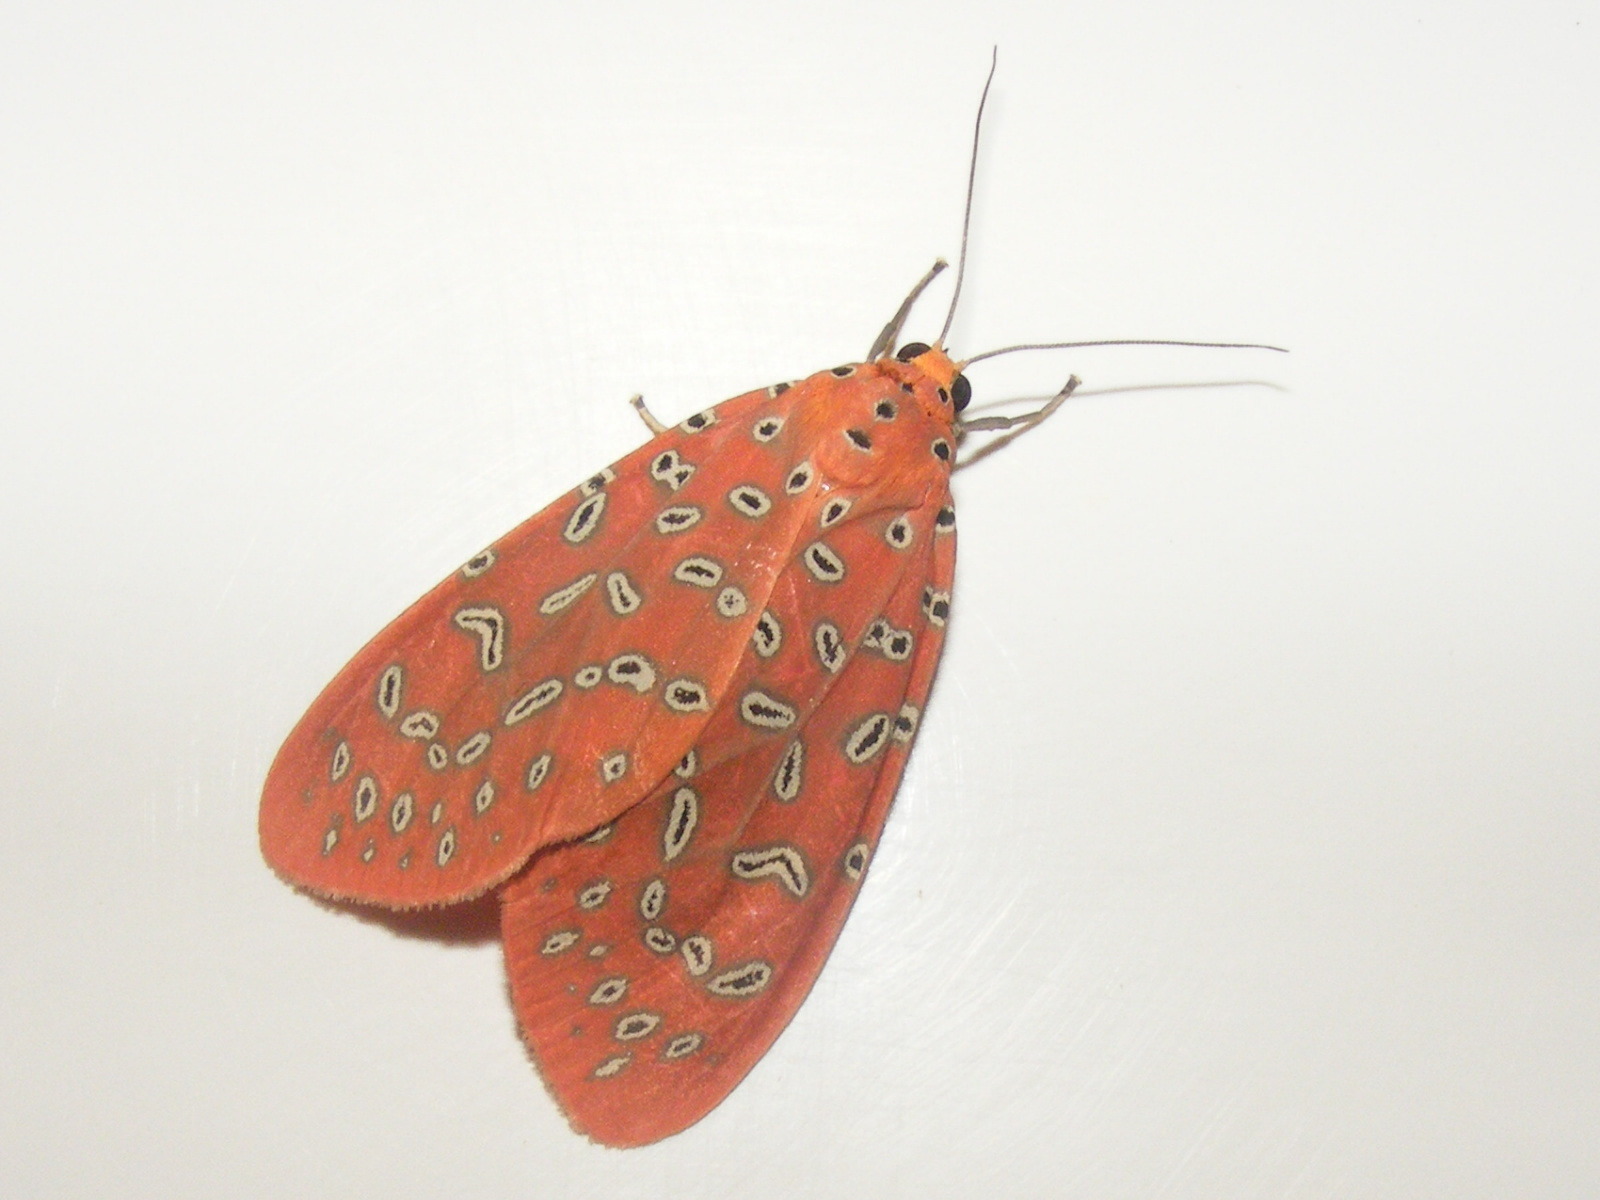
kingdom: Animalia
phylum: Arthropoda
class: Insecta
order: Lepidoptera
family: Erebidae
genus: Mangina
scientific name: Mangina argus
